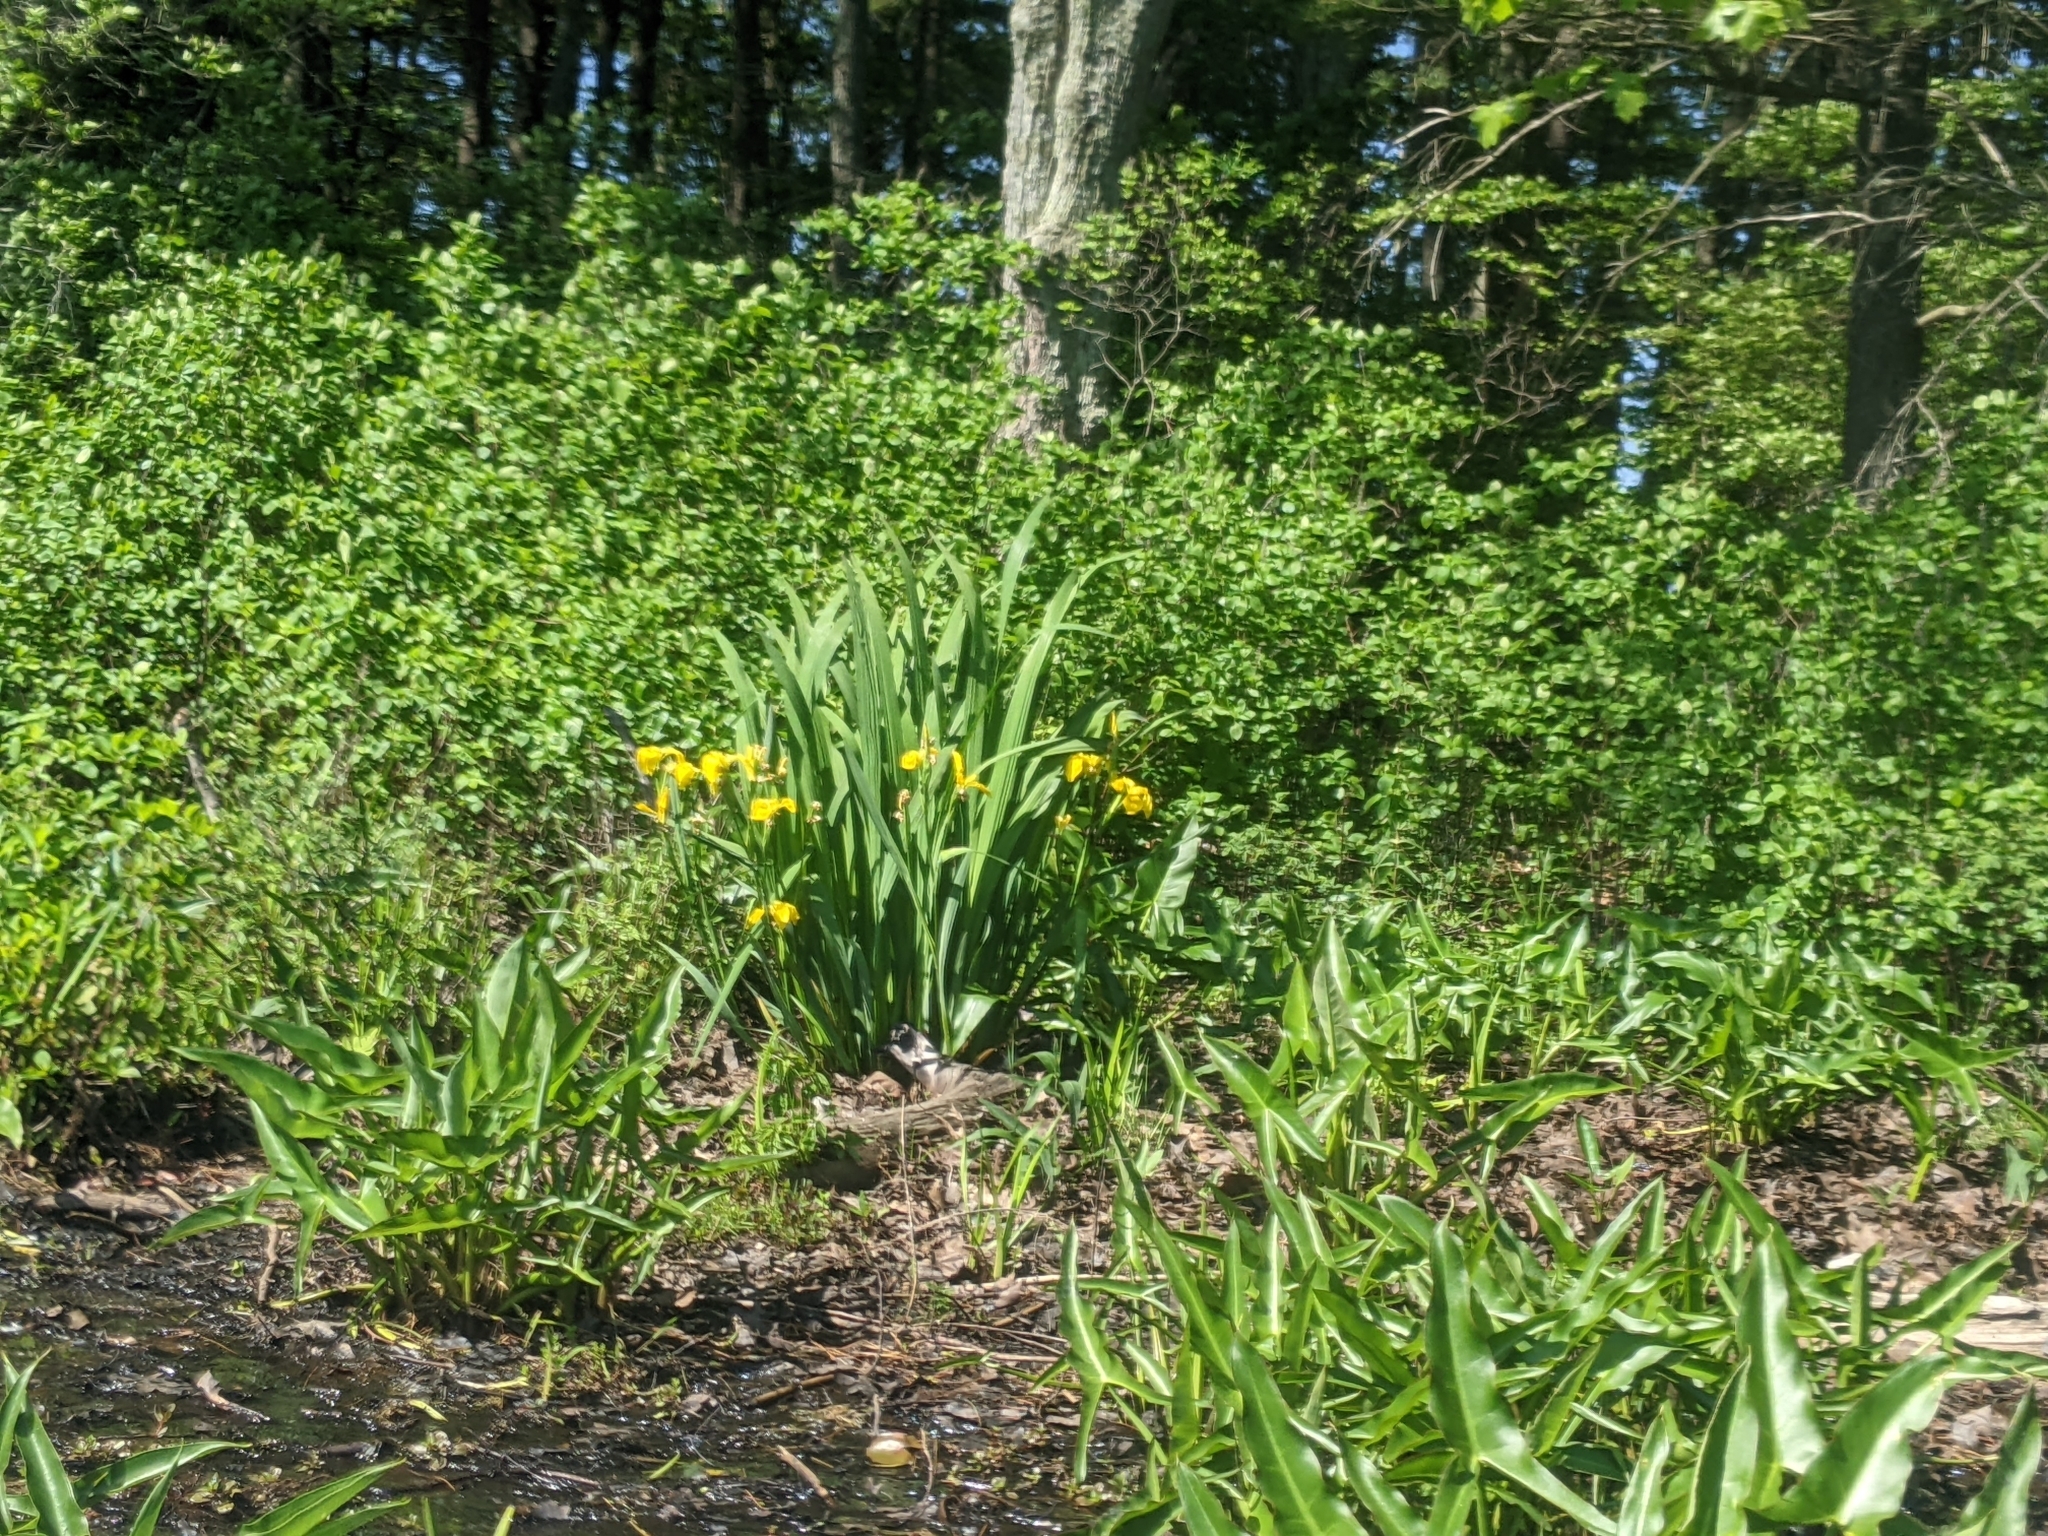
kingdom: Plantae
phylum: Tracheophyta
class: Liliopsida
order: Asparagales
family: Iridaceae
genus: Iris
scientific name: Iris pseudacorus
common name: Yellow flag
